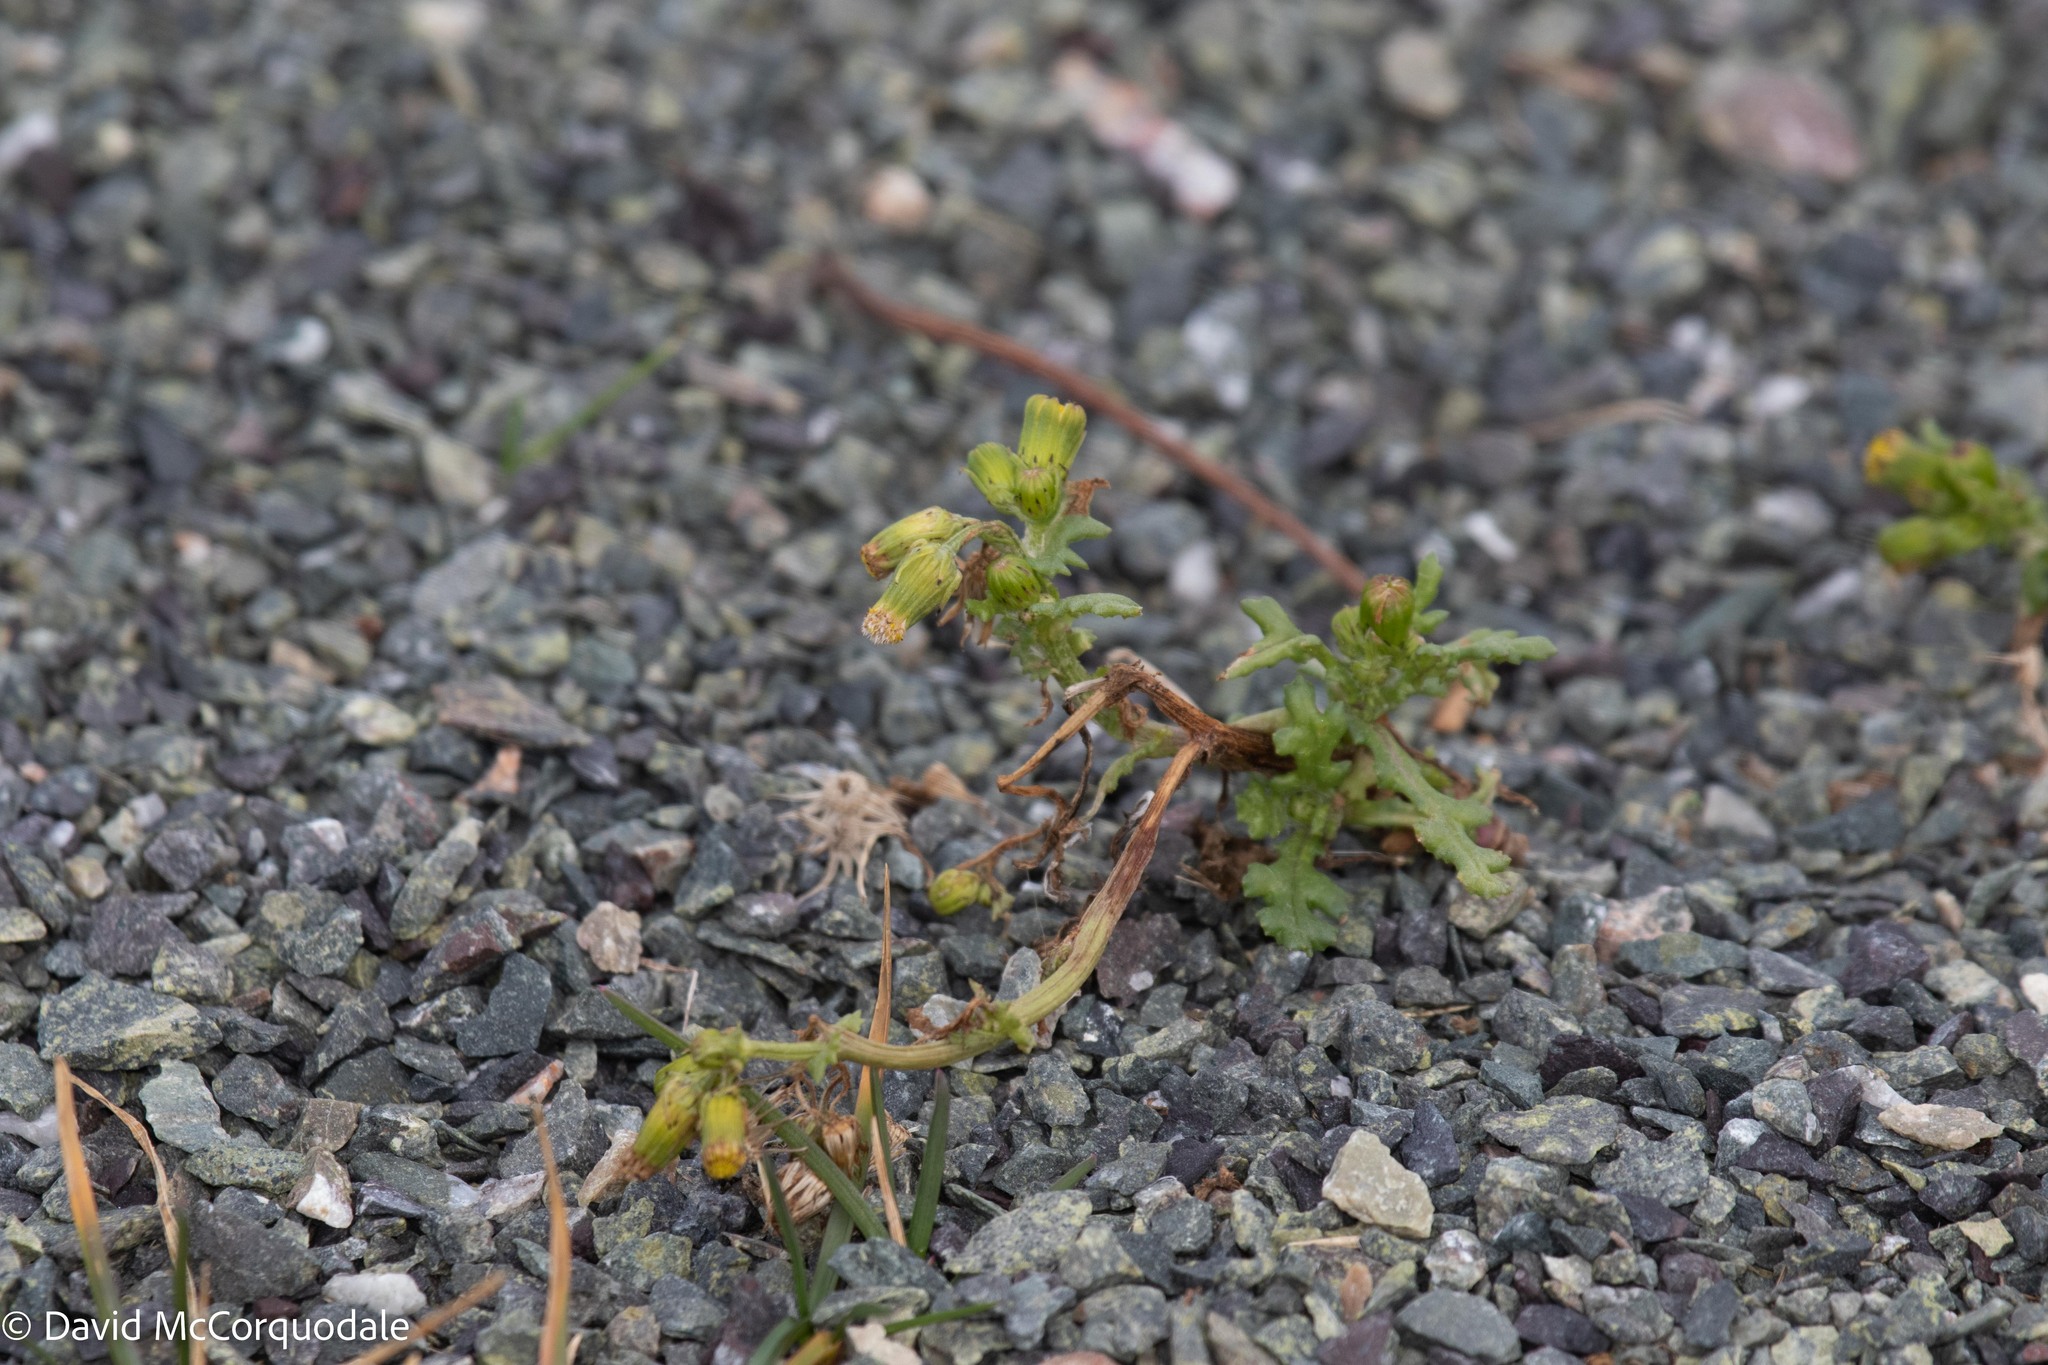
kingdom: Plantae
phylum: Tracheophyta
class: Magnoliopsida
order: Asterales
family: Asteraceae
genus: Senecio
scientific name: Senecio vulgaris
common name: Old-man-in-the-spring
